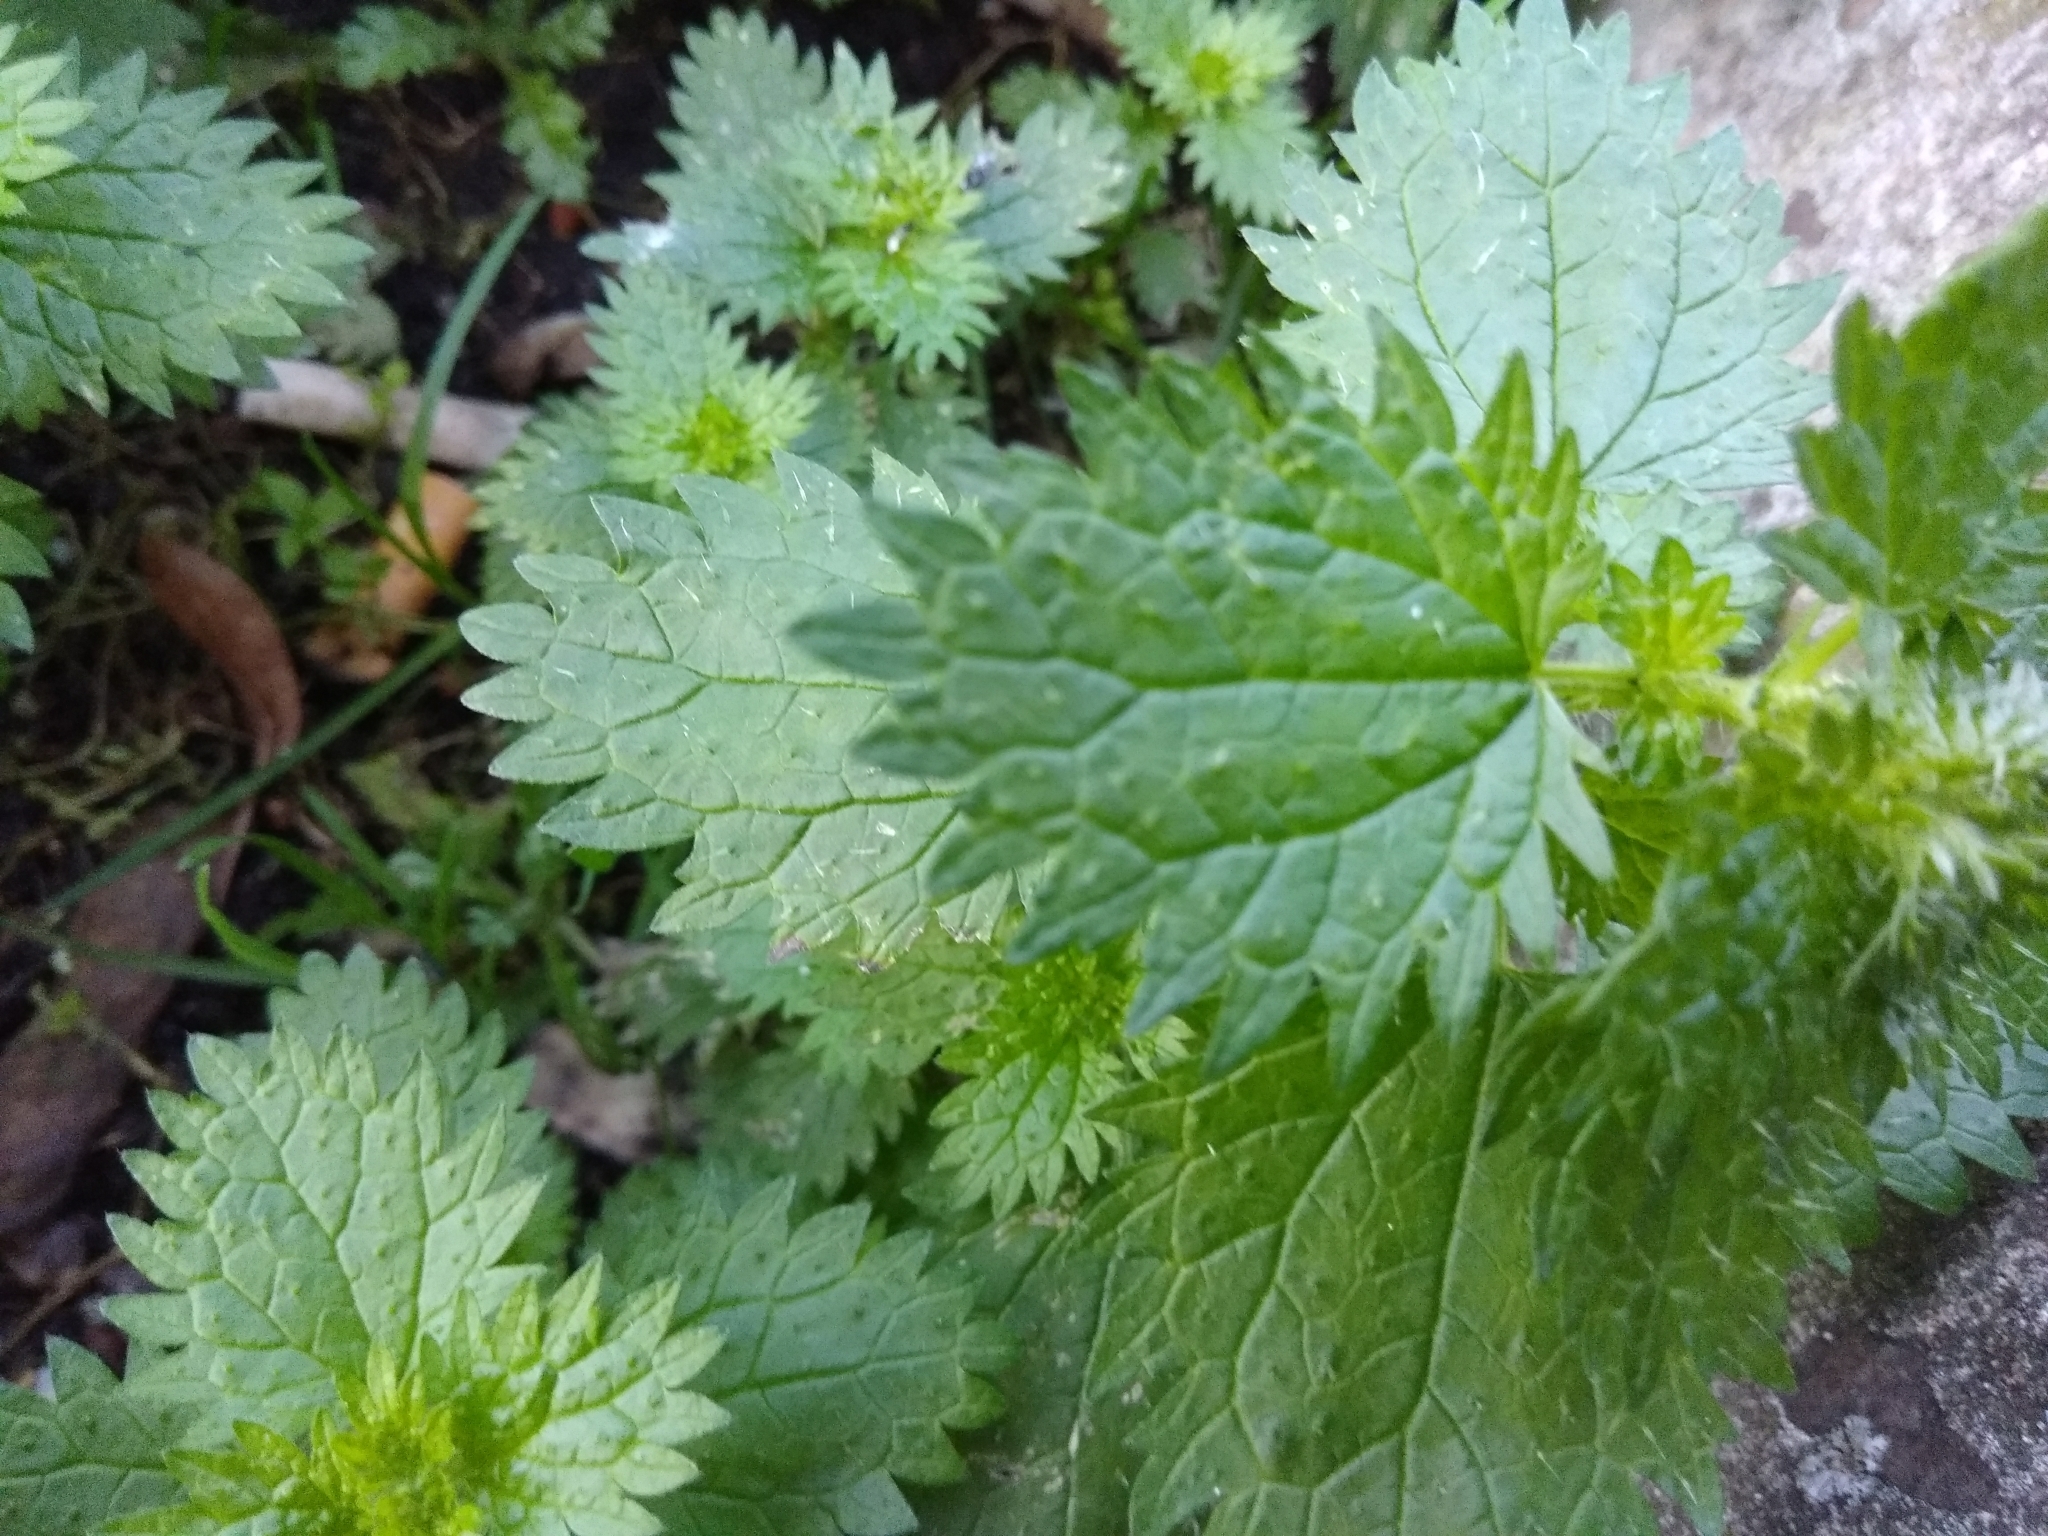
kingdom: Plantae
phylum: Tracheophyta
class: Magnoliopsida
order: Rosales
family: Urticaceae
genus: Urtica
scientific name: Urtica urens
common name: Dwarf nettle
